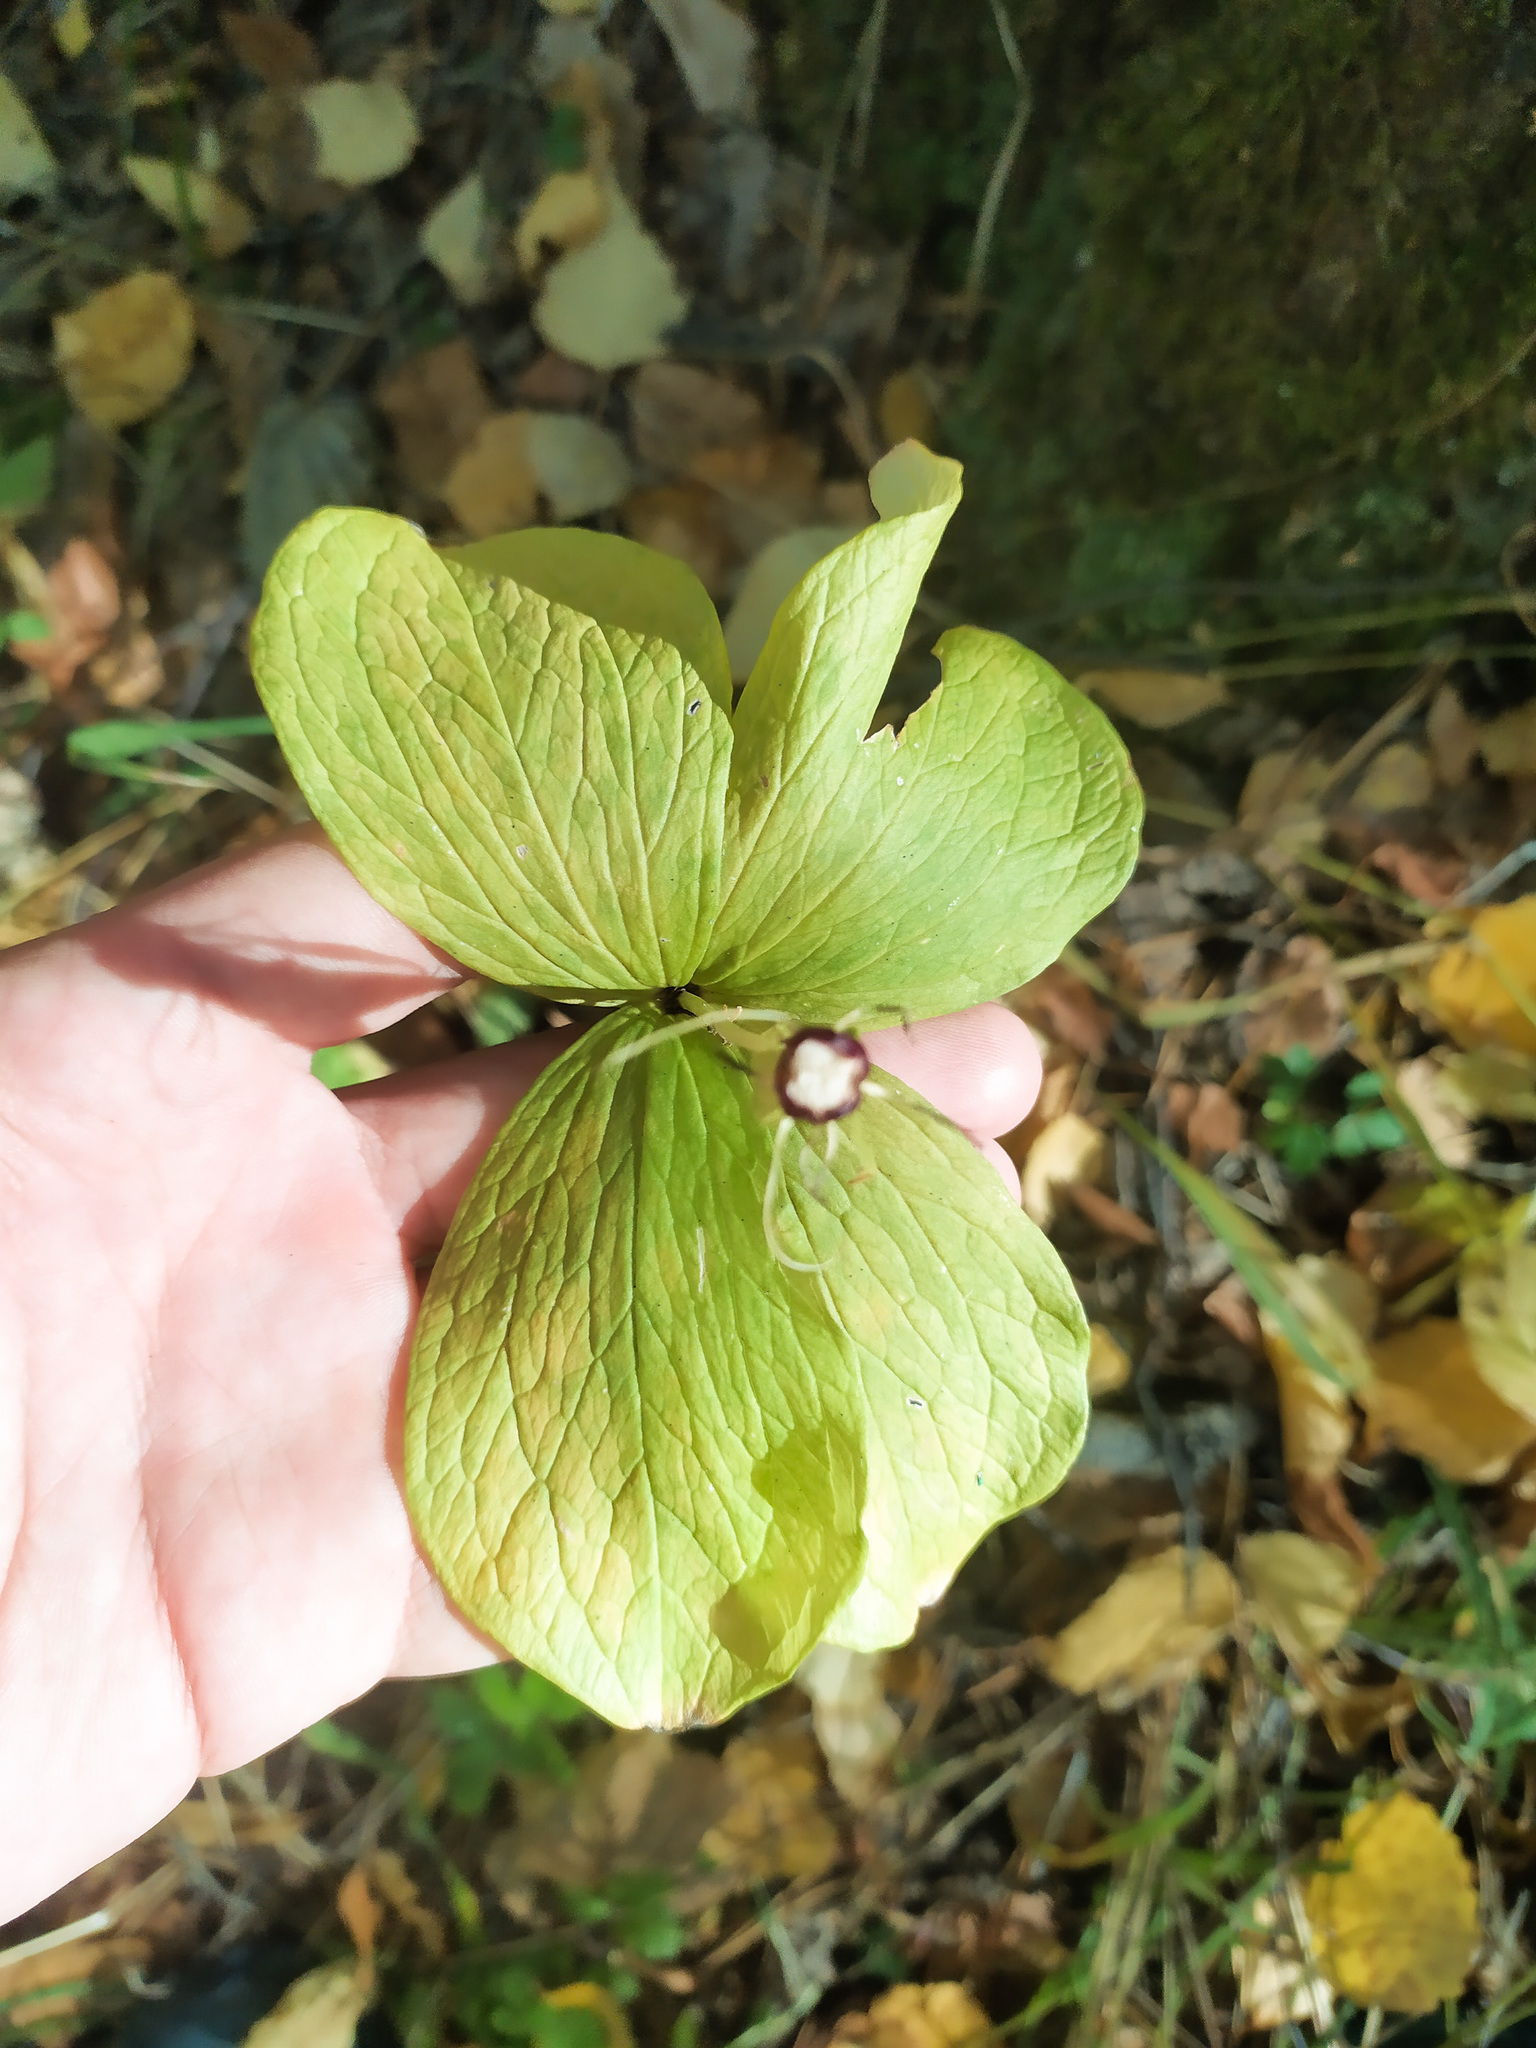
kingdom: Plantae
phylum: Tracheophyta
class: Liliopsida
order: Liliales
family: Melanthiaceae
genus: Paris
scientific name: Paris quadrifolia
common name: Herb-paris
